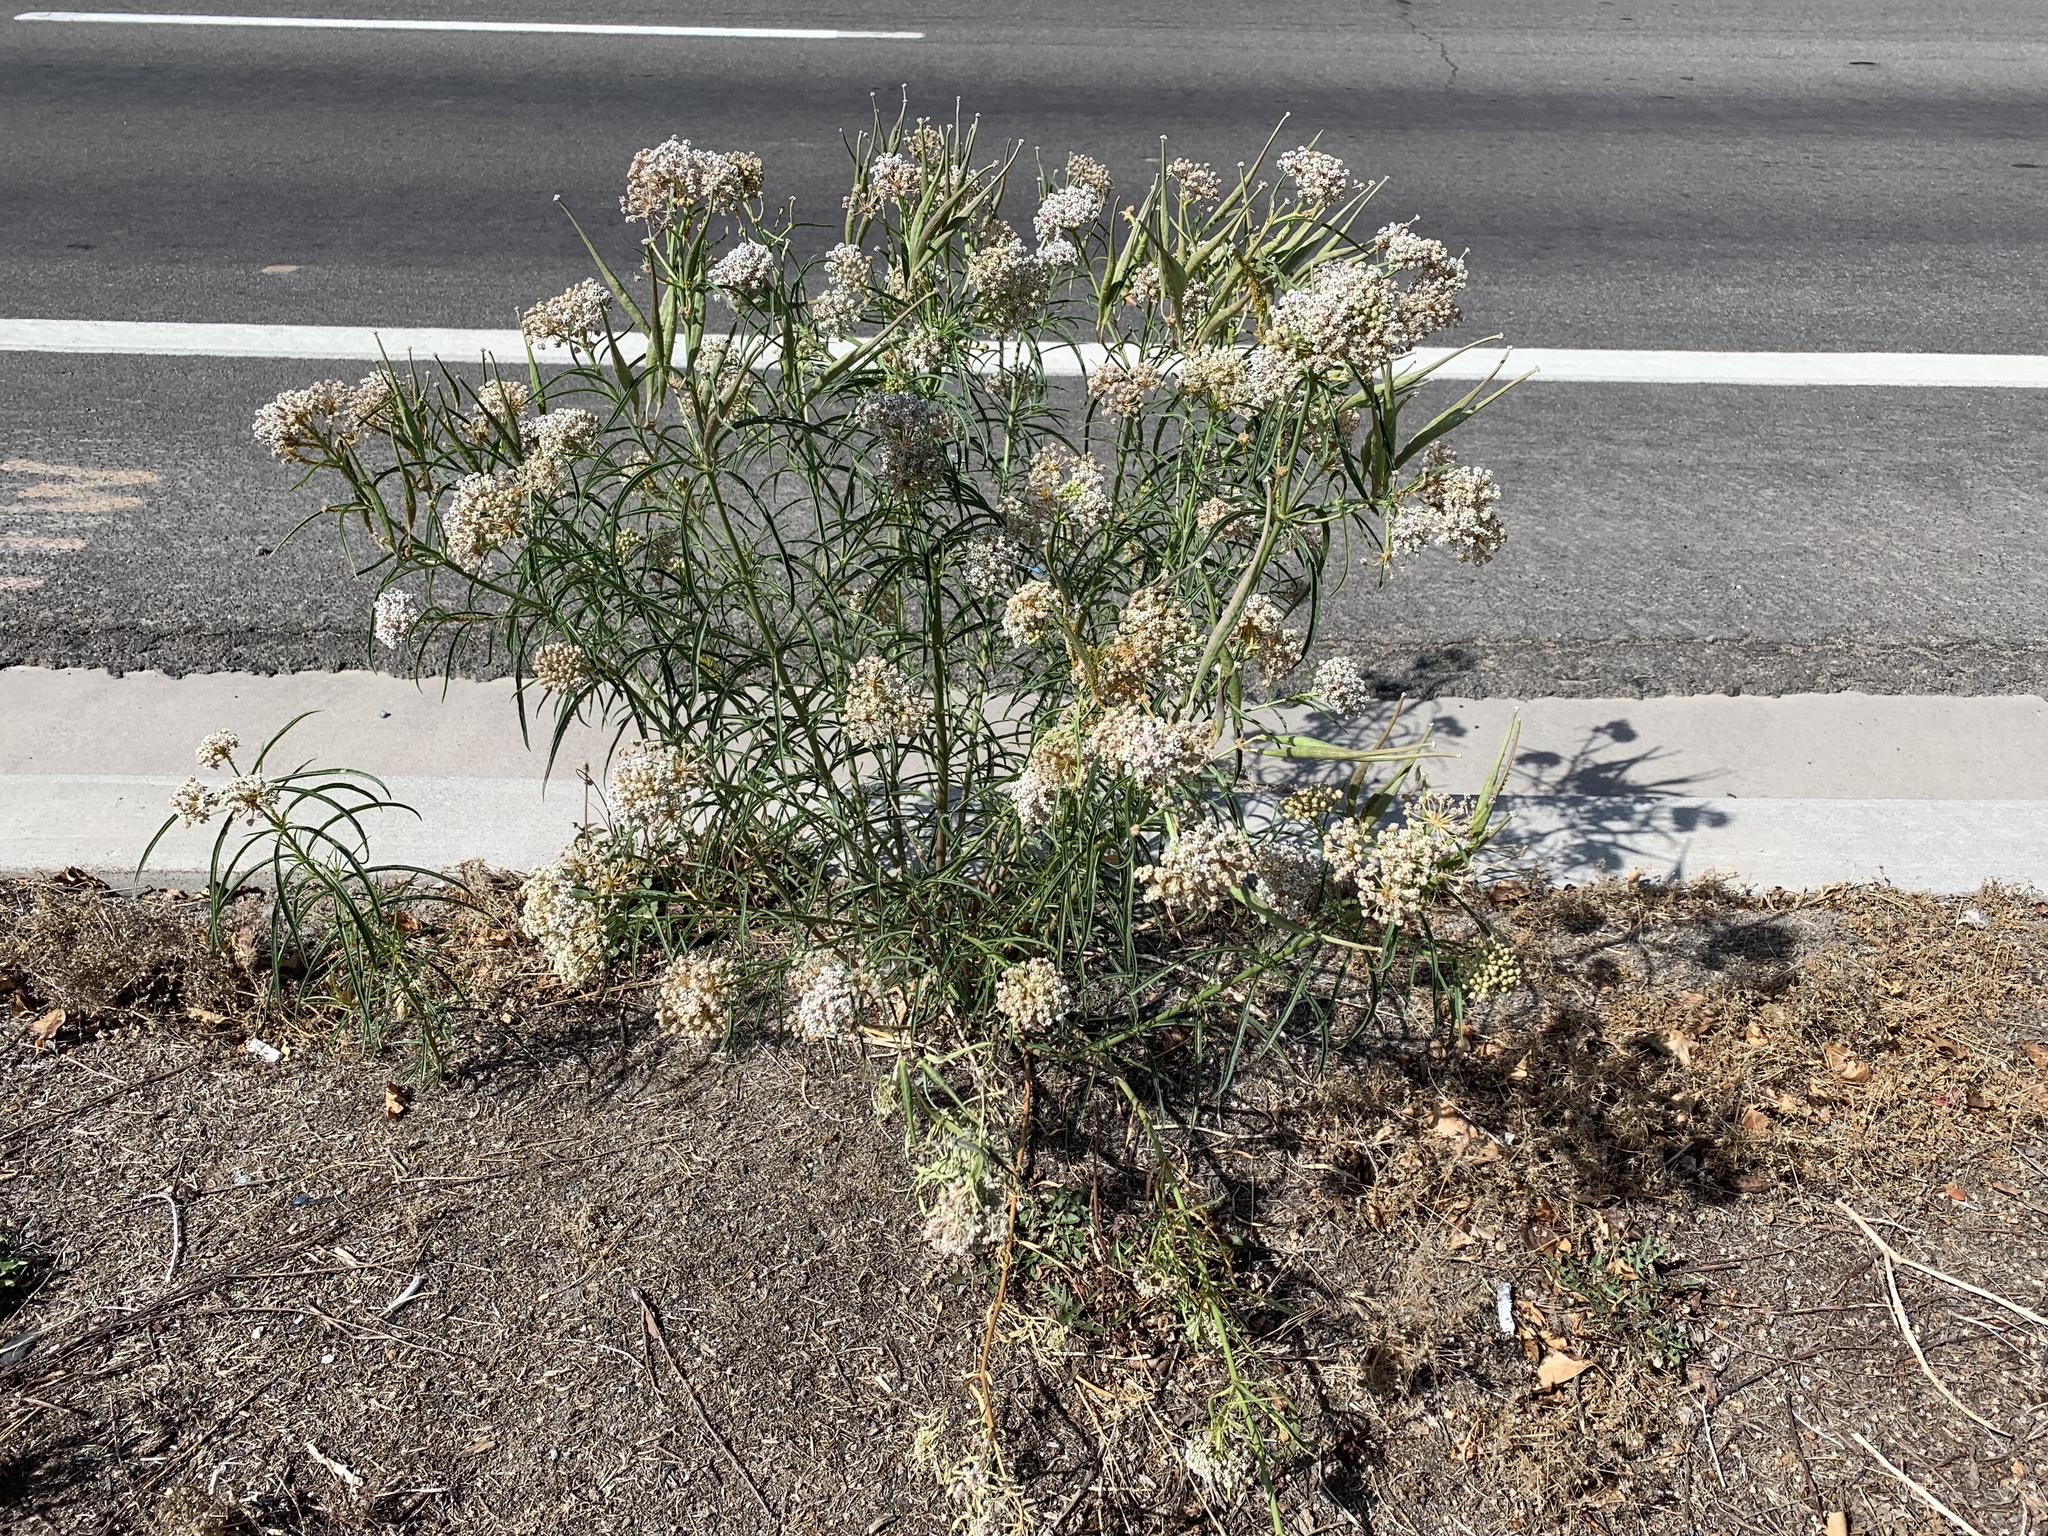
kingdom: Plantae
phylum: Tracheophyta
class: Magnoliopsida
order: Gentianales
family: Apocynaceae
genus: Asclepias
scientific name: Asclepias fascicularis
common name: Mexican milkweed
